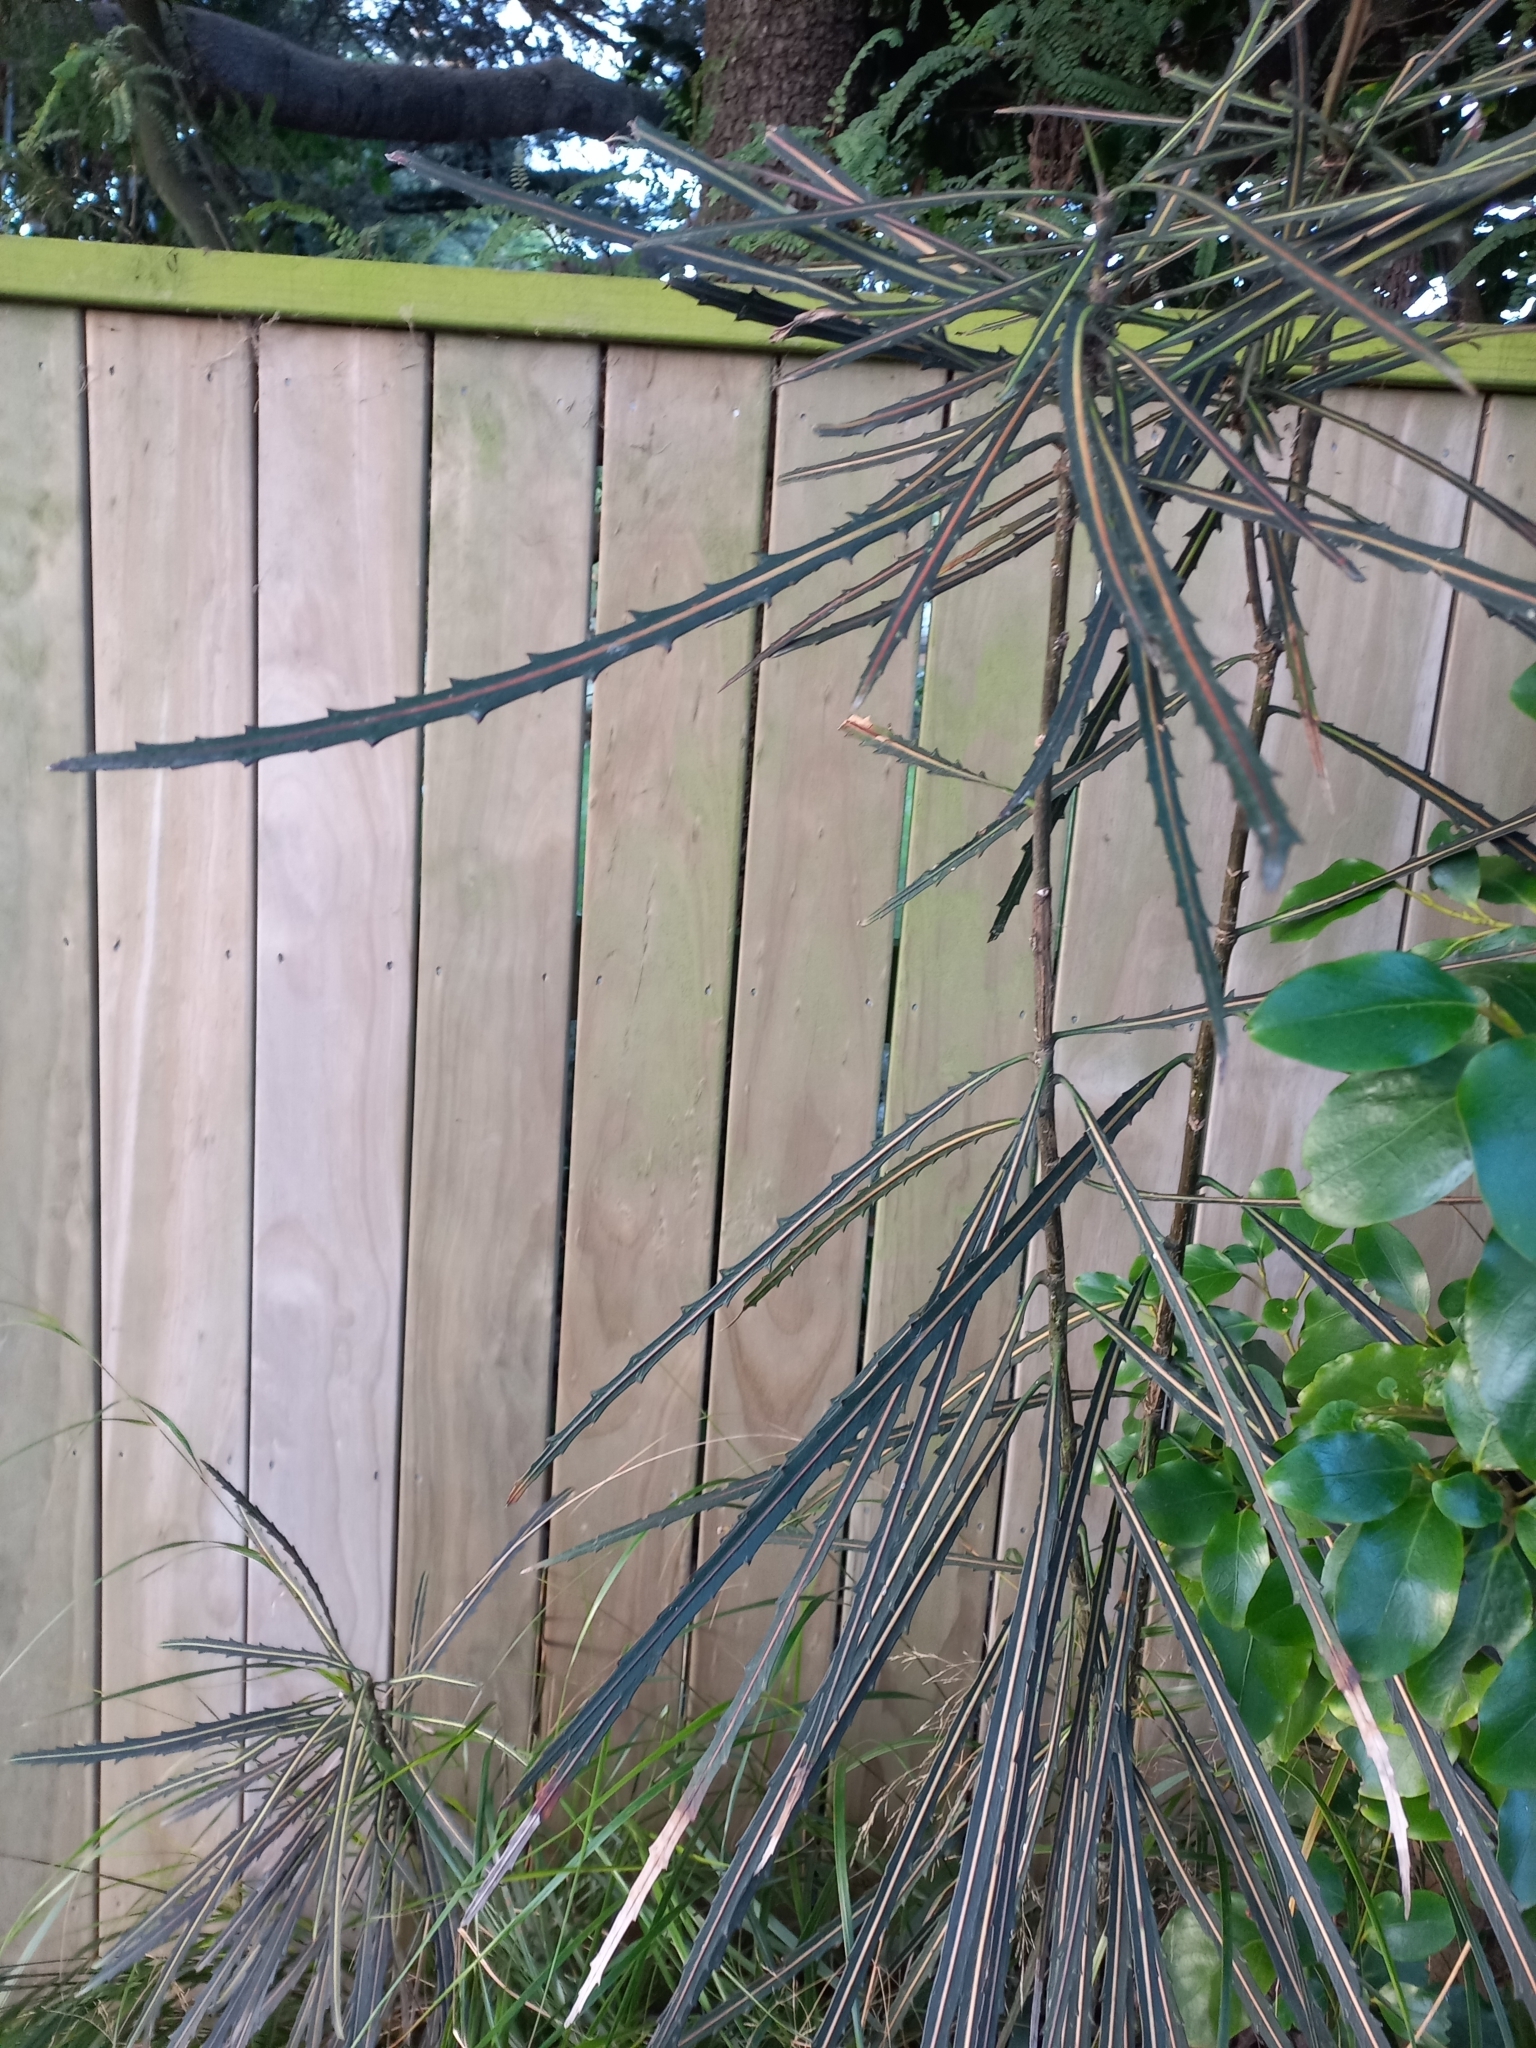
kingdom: Plantae
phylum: Tracheophyta
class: Magnoliopsida
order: Apiales
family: Araliaceae
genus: Pseudopanax
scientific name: Pseudopanax crassifolius
